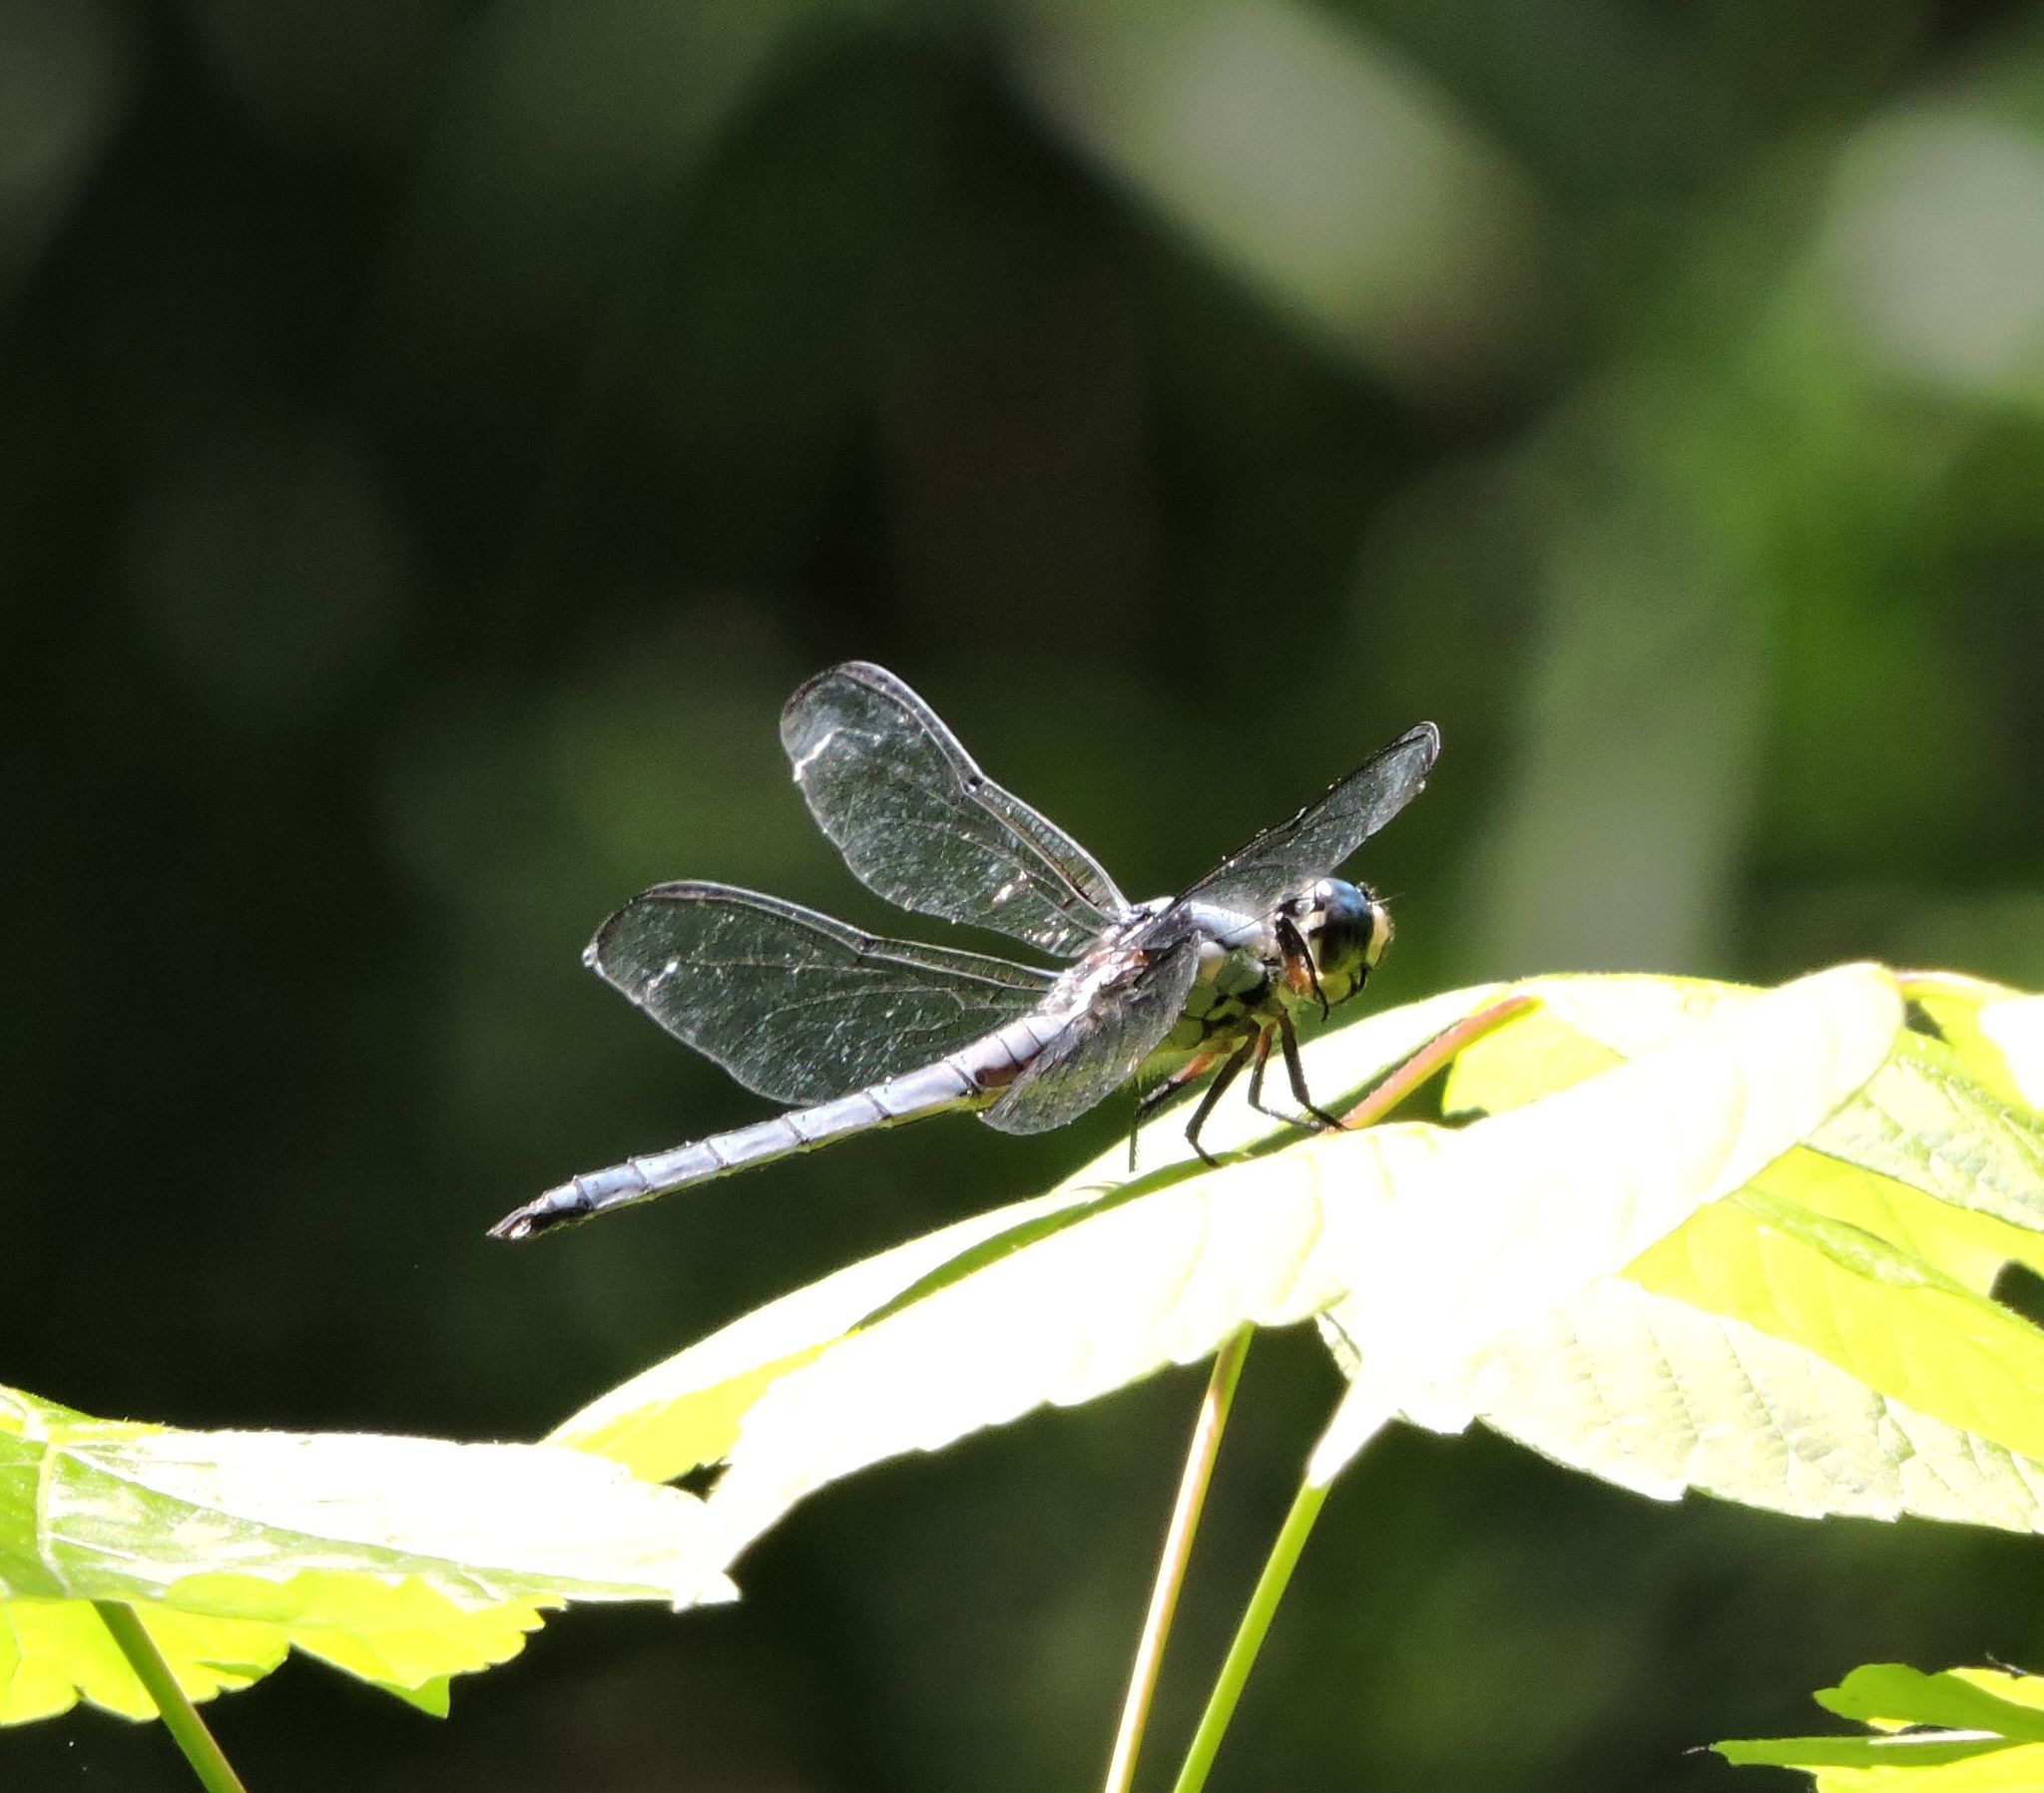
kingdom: Animalia
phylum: Arthropoda
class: Insecta
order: Odonata
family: Libellulidae
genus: Libellula
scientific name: Libellula vibrans
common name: Great blue skimmer
